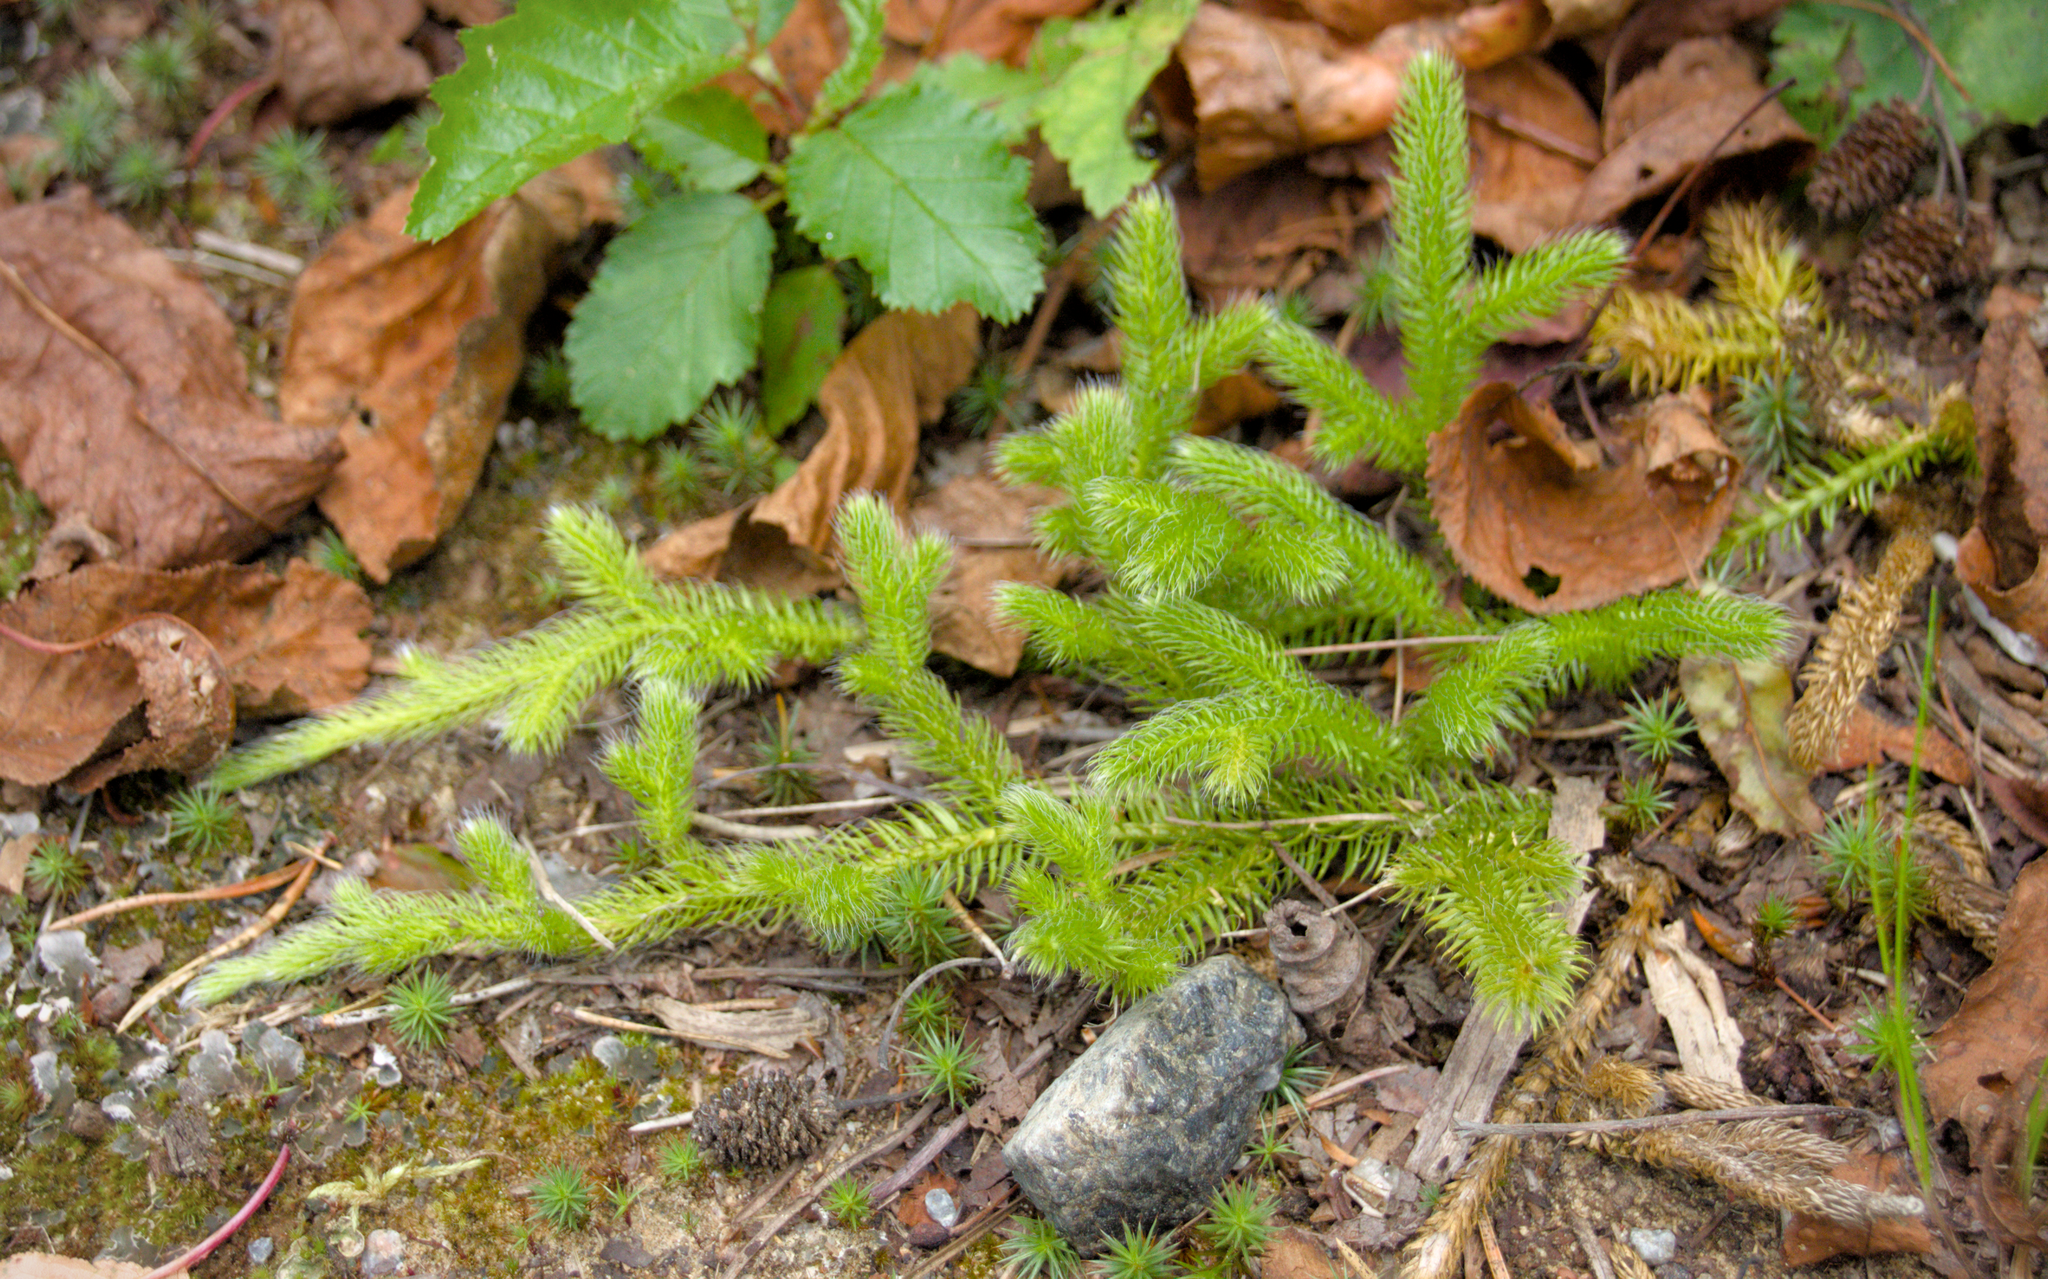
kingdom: Plantae
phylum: Tracheophyta
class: Lycopodiopsida
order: Lycopodiales
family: Lycopodiaceae
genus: Lycopodium
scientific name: Lycopodium clavatum
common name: Stag's-horn clubmoss
